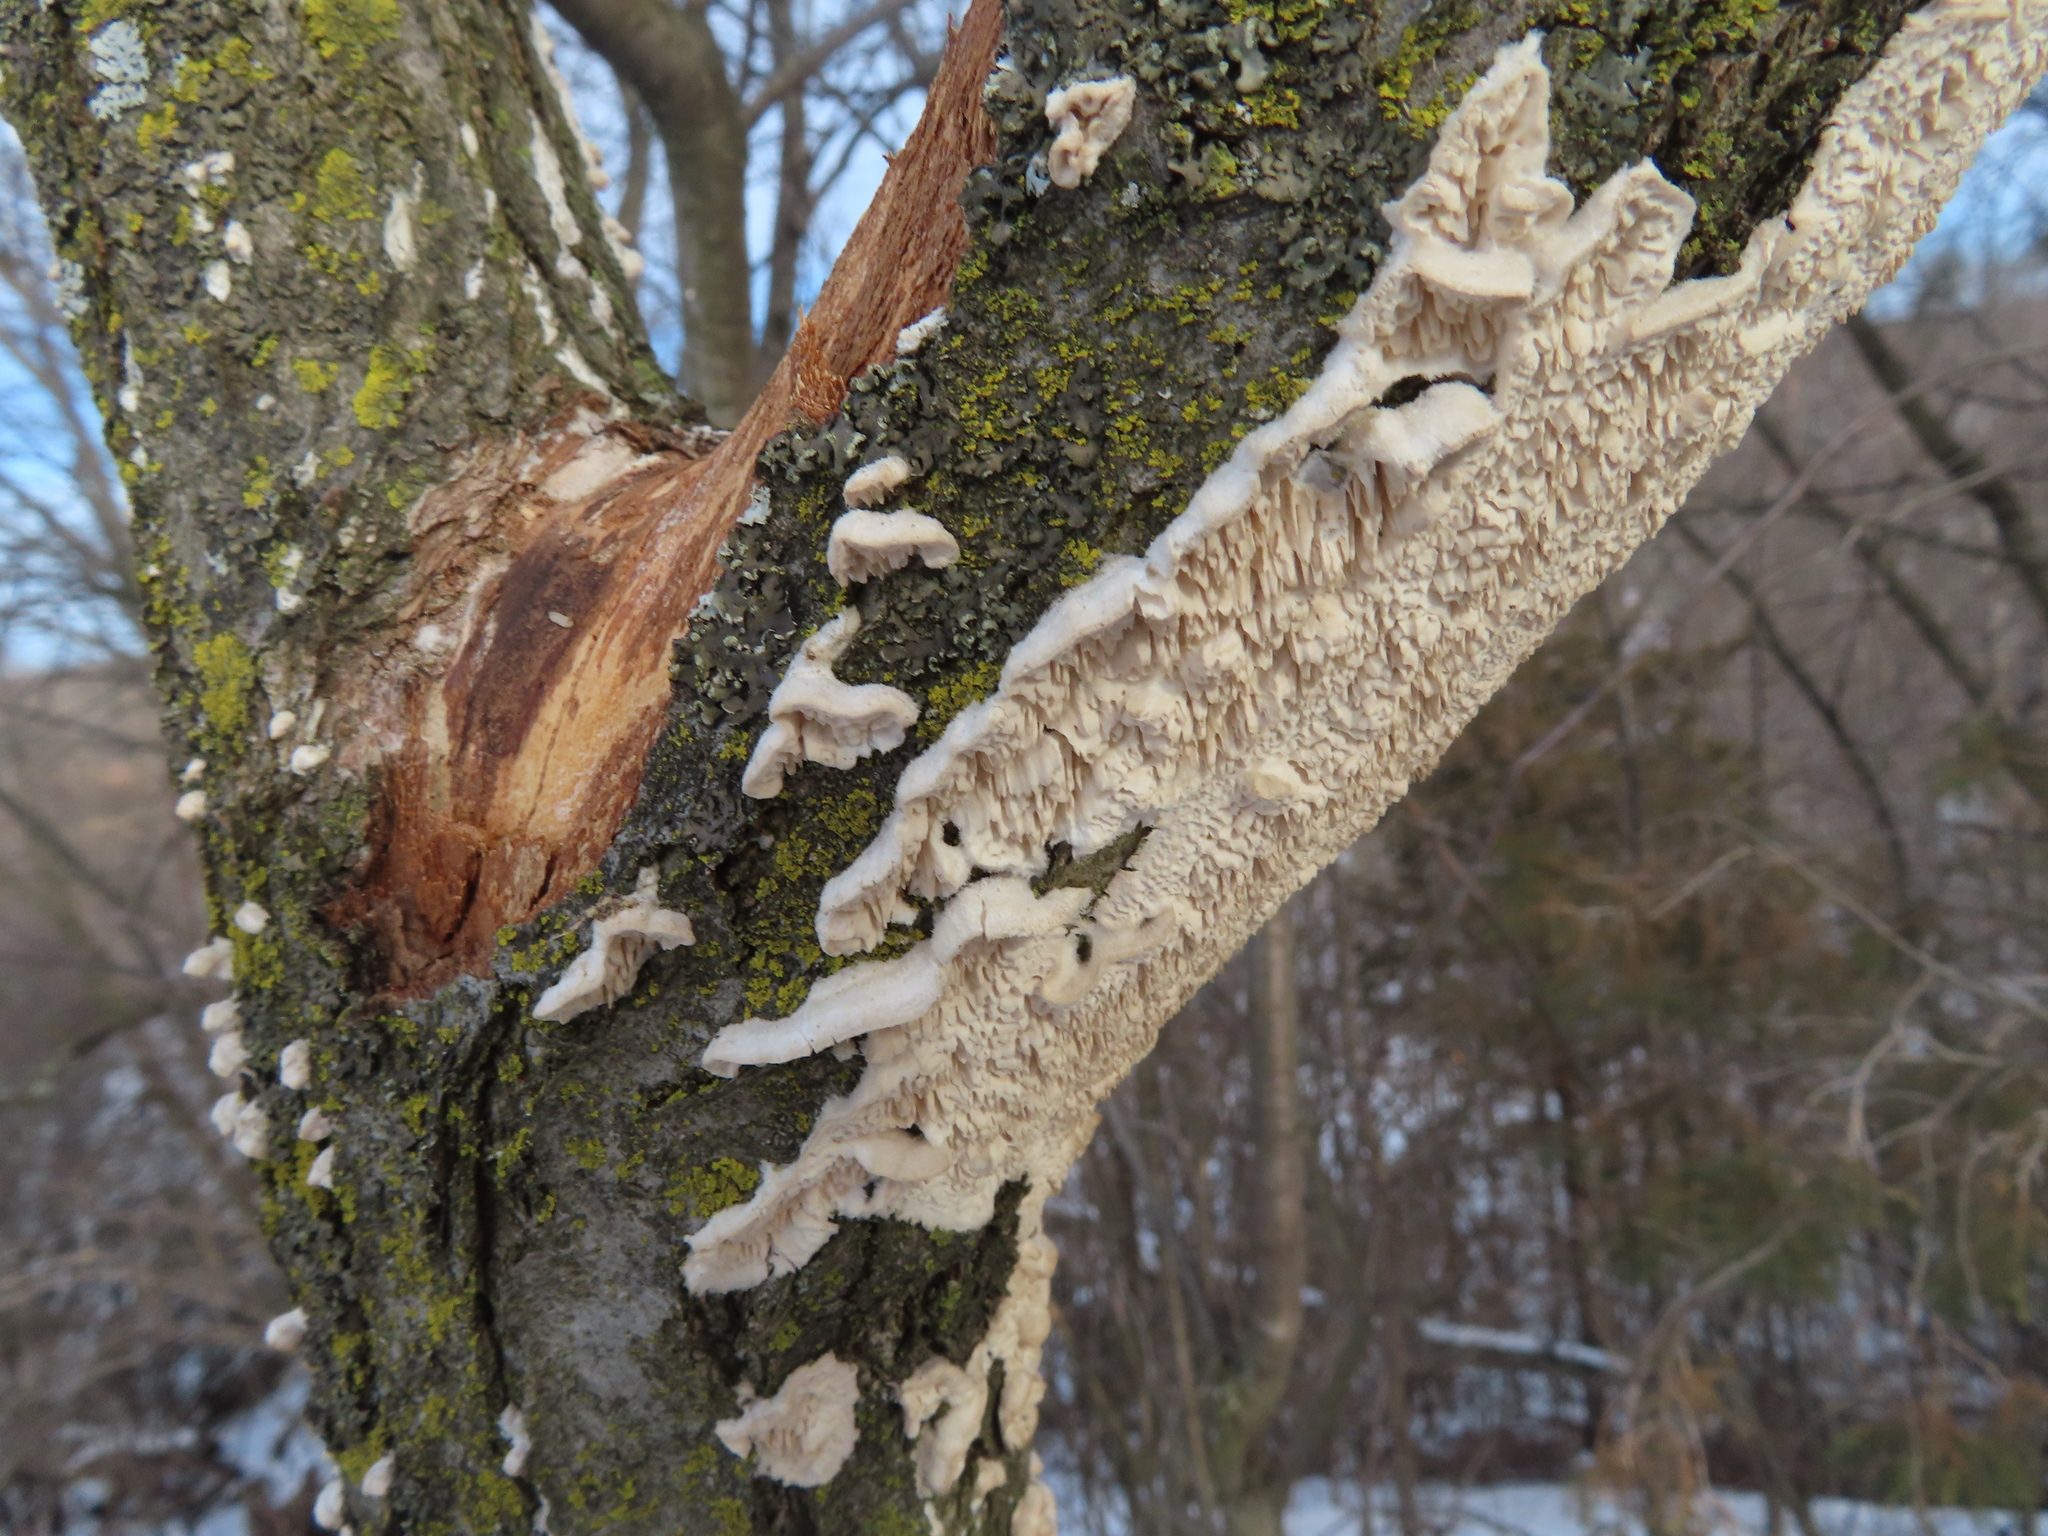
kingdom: Fungi
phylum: Basidiomycota
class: Agaricomycetes
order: Polyporales
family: Irpicaceae
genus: Irpex
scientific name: Irpex lacteus
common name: Milk-white toothed polypore
